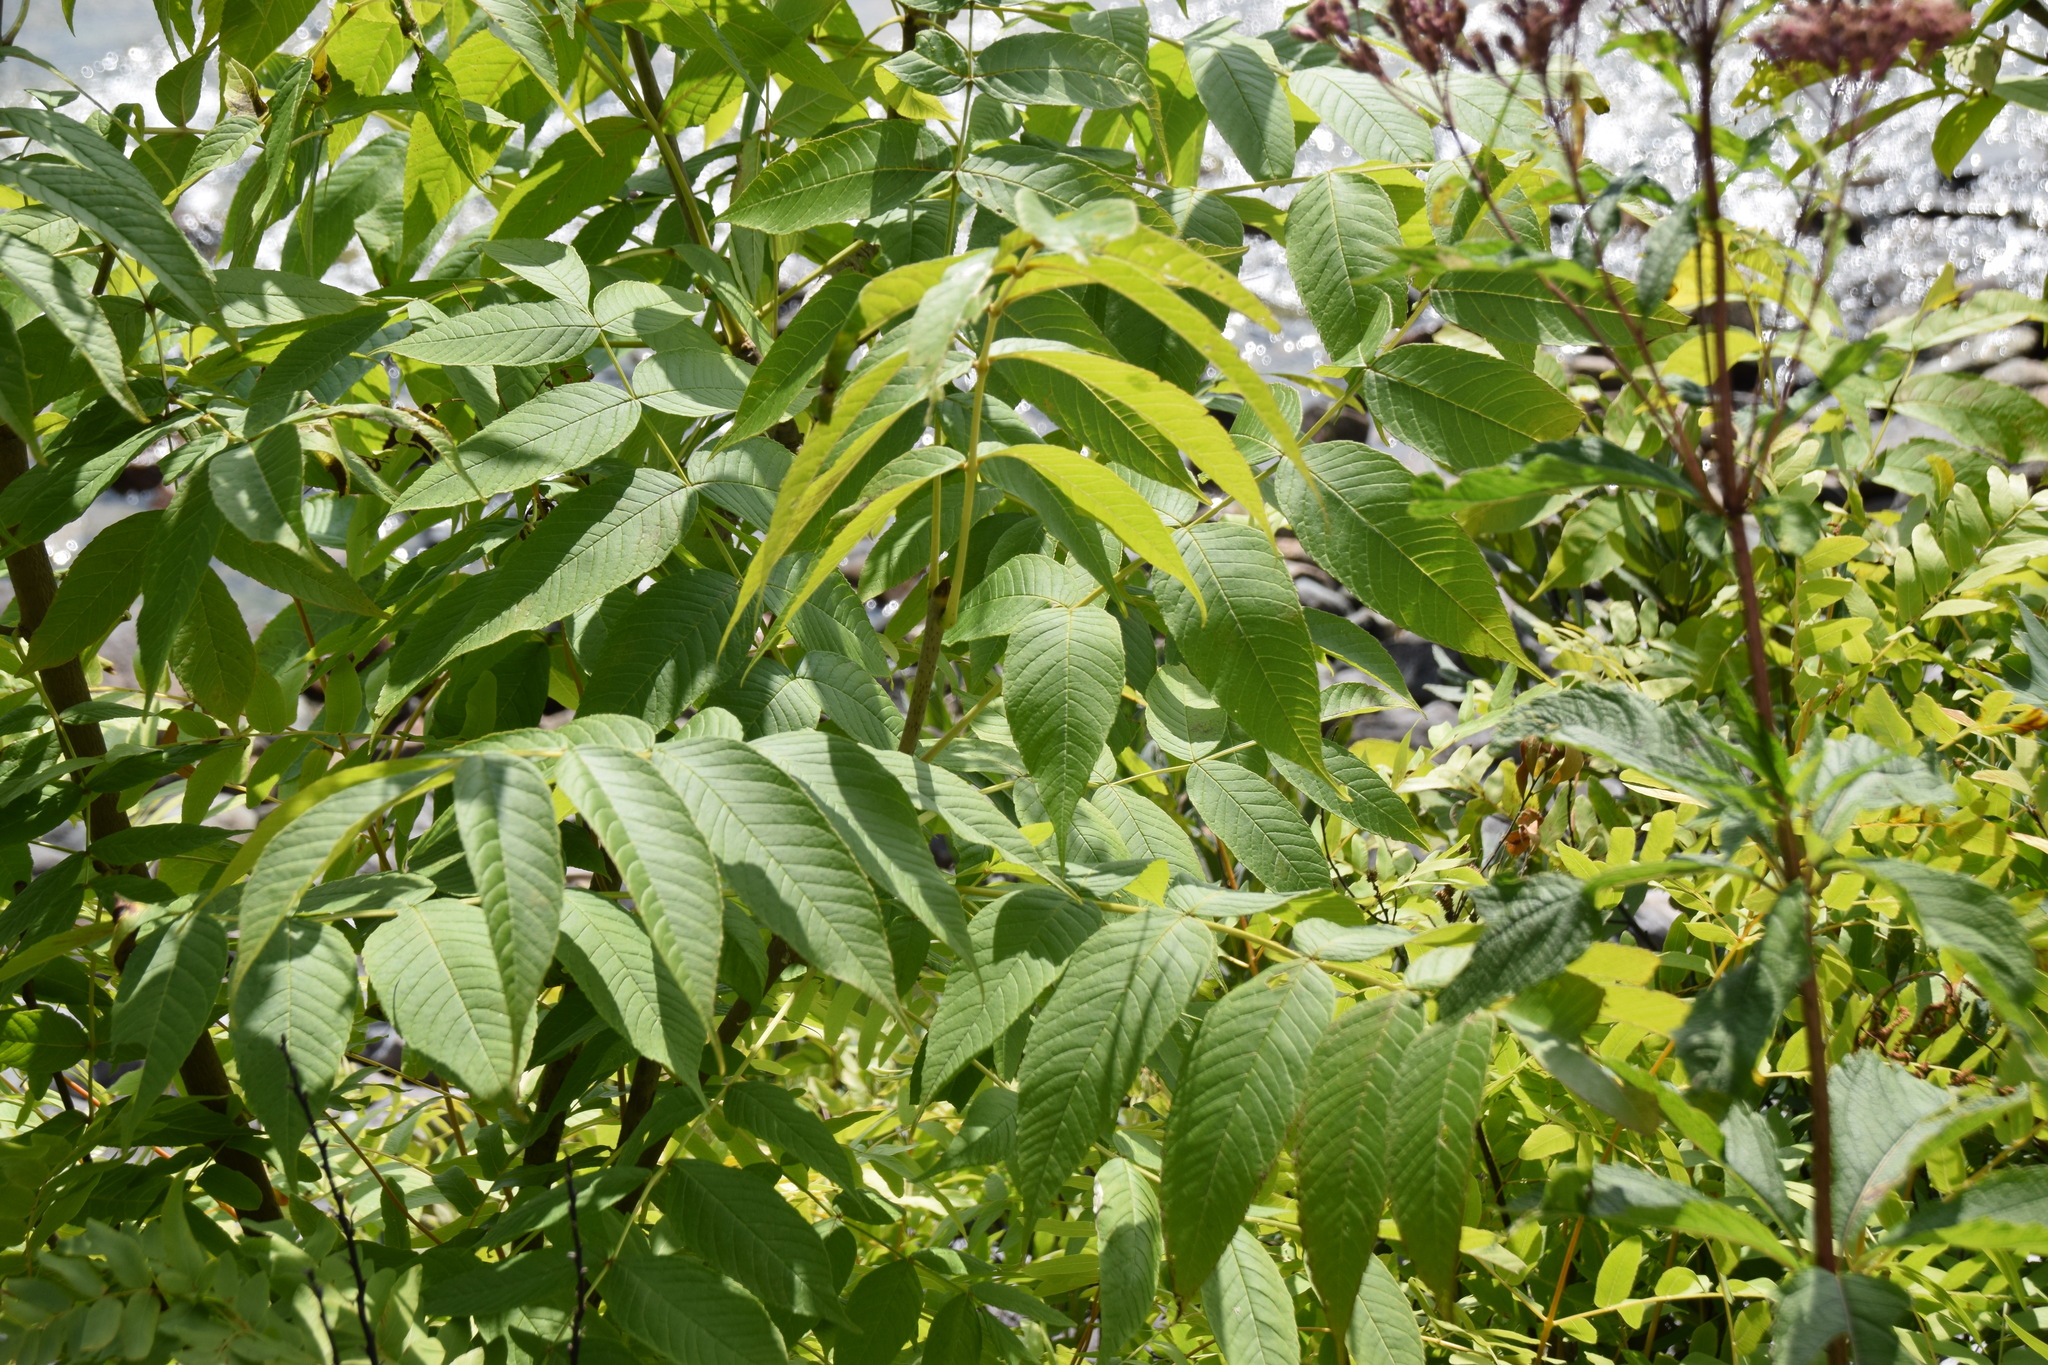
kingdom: Plantae
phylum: Tracheophyta
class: Magnoliopsida
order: Lamiales
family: Oleaceae
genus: Fraxinus
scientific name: Fraxinus nigra
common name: Black ash
